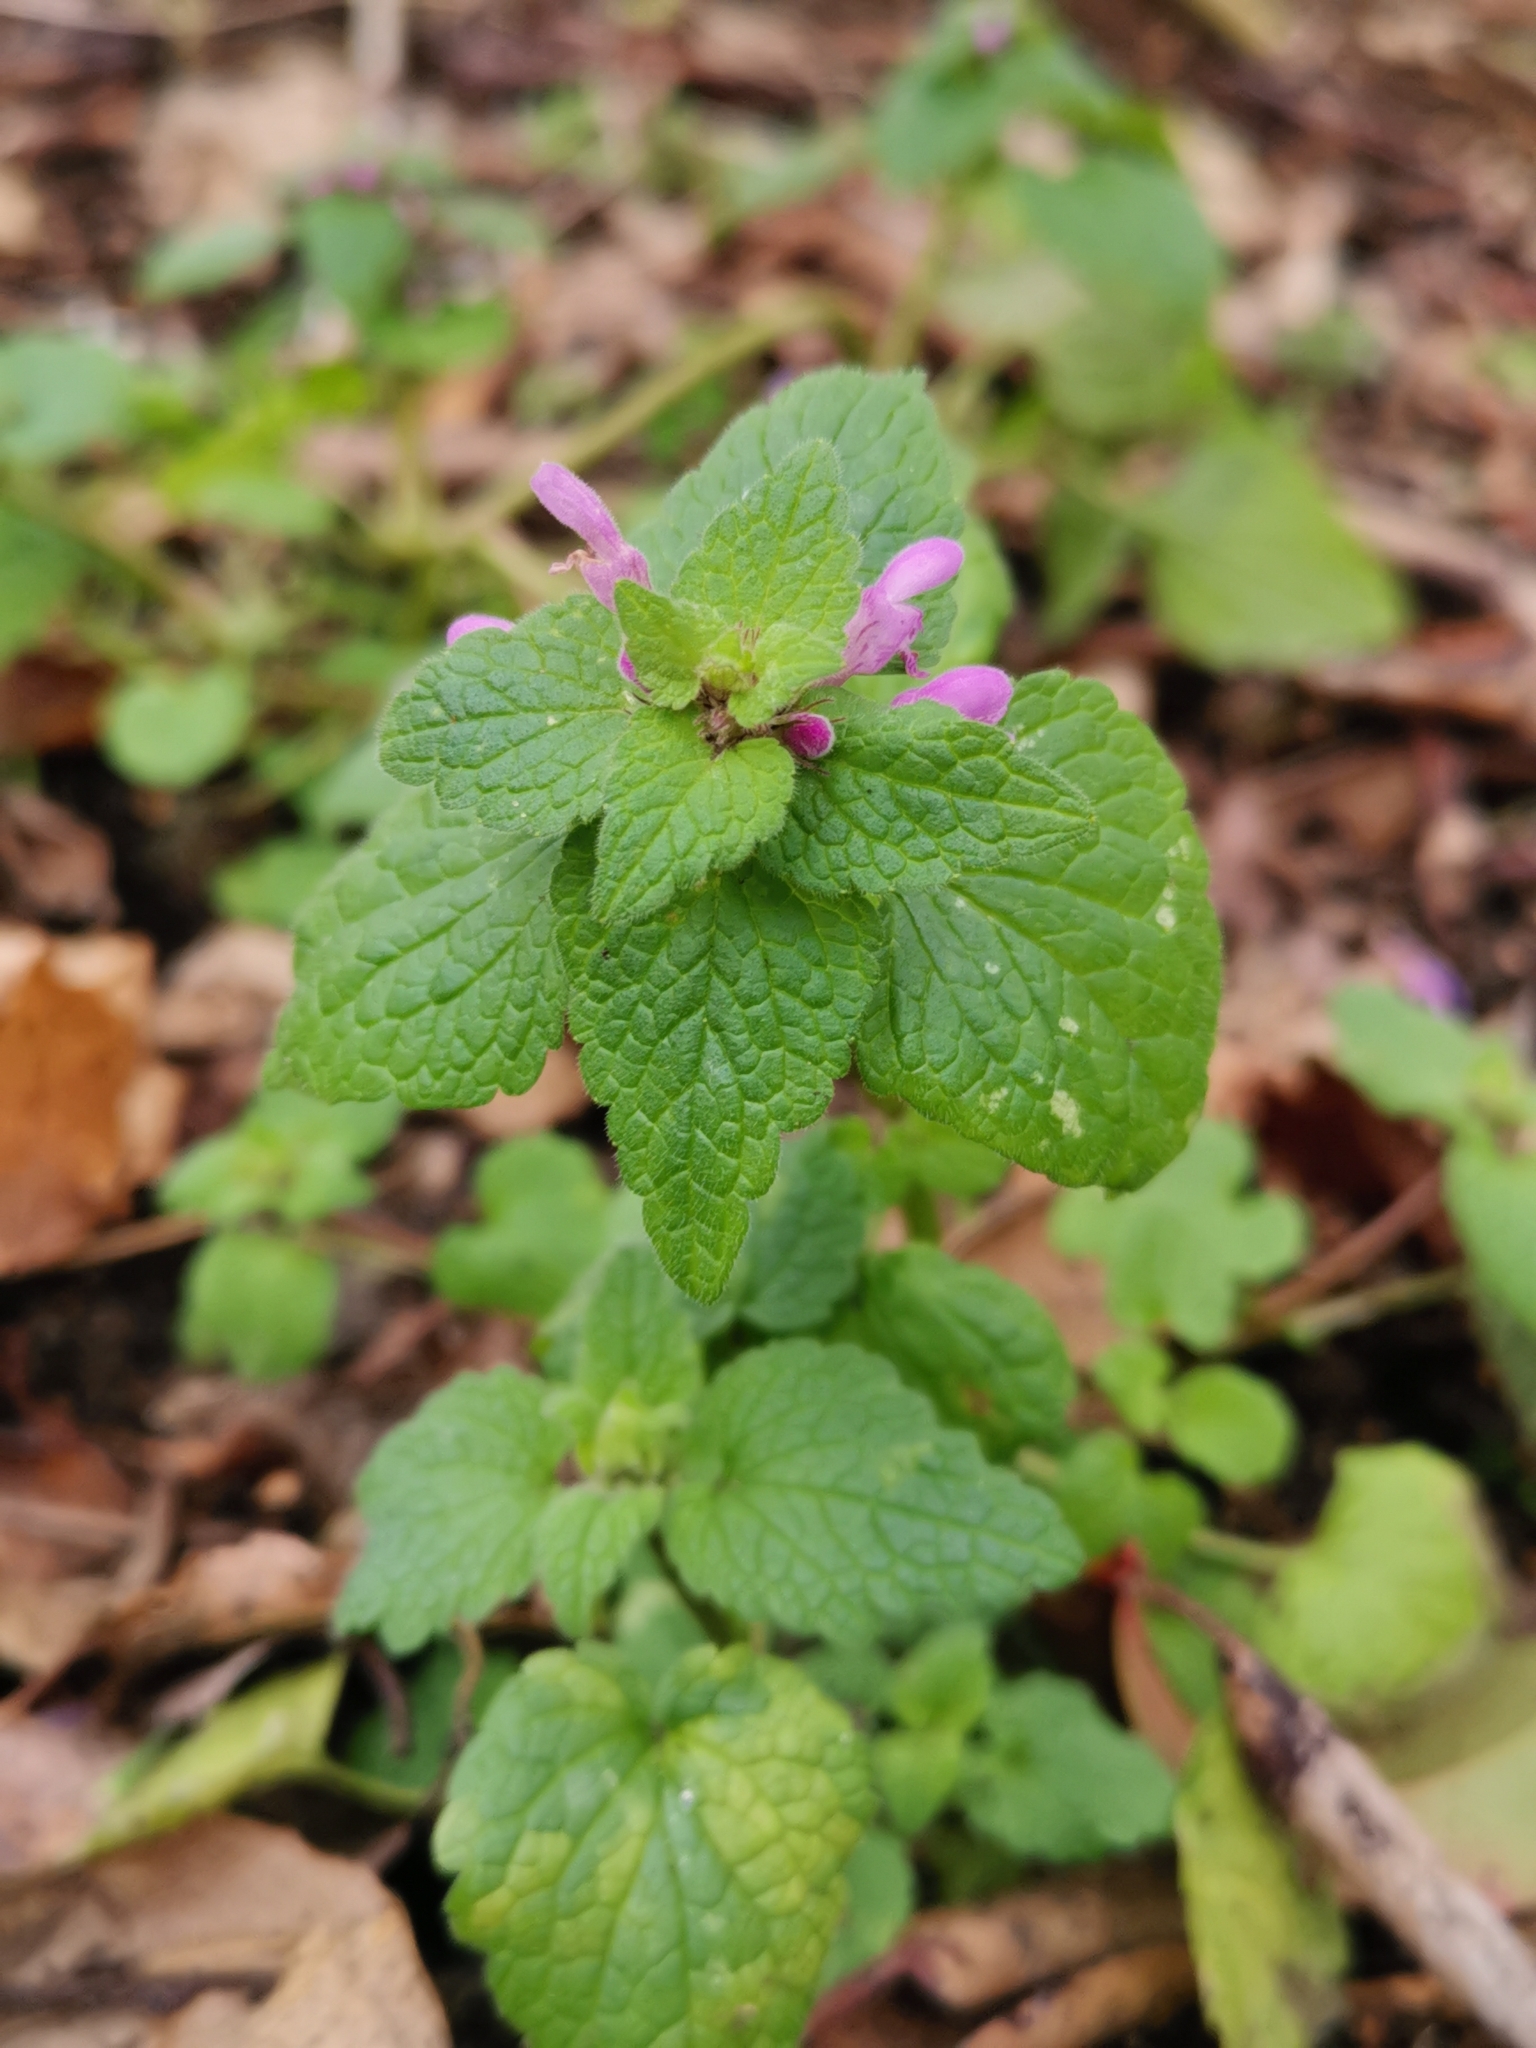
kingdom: Plantae
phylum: Tracheophyta
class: Magnoliopsida
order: Lamiales
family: Lamiaceae
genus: Lamium
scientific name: Lamium purpureum
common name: Red dead-nettle
